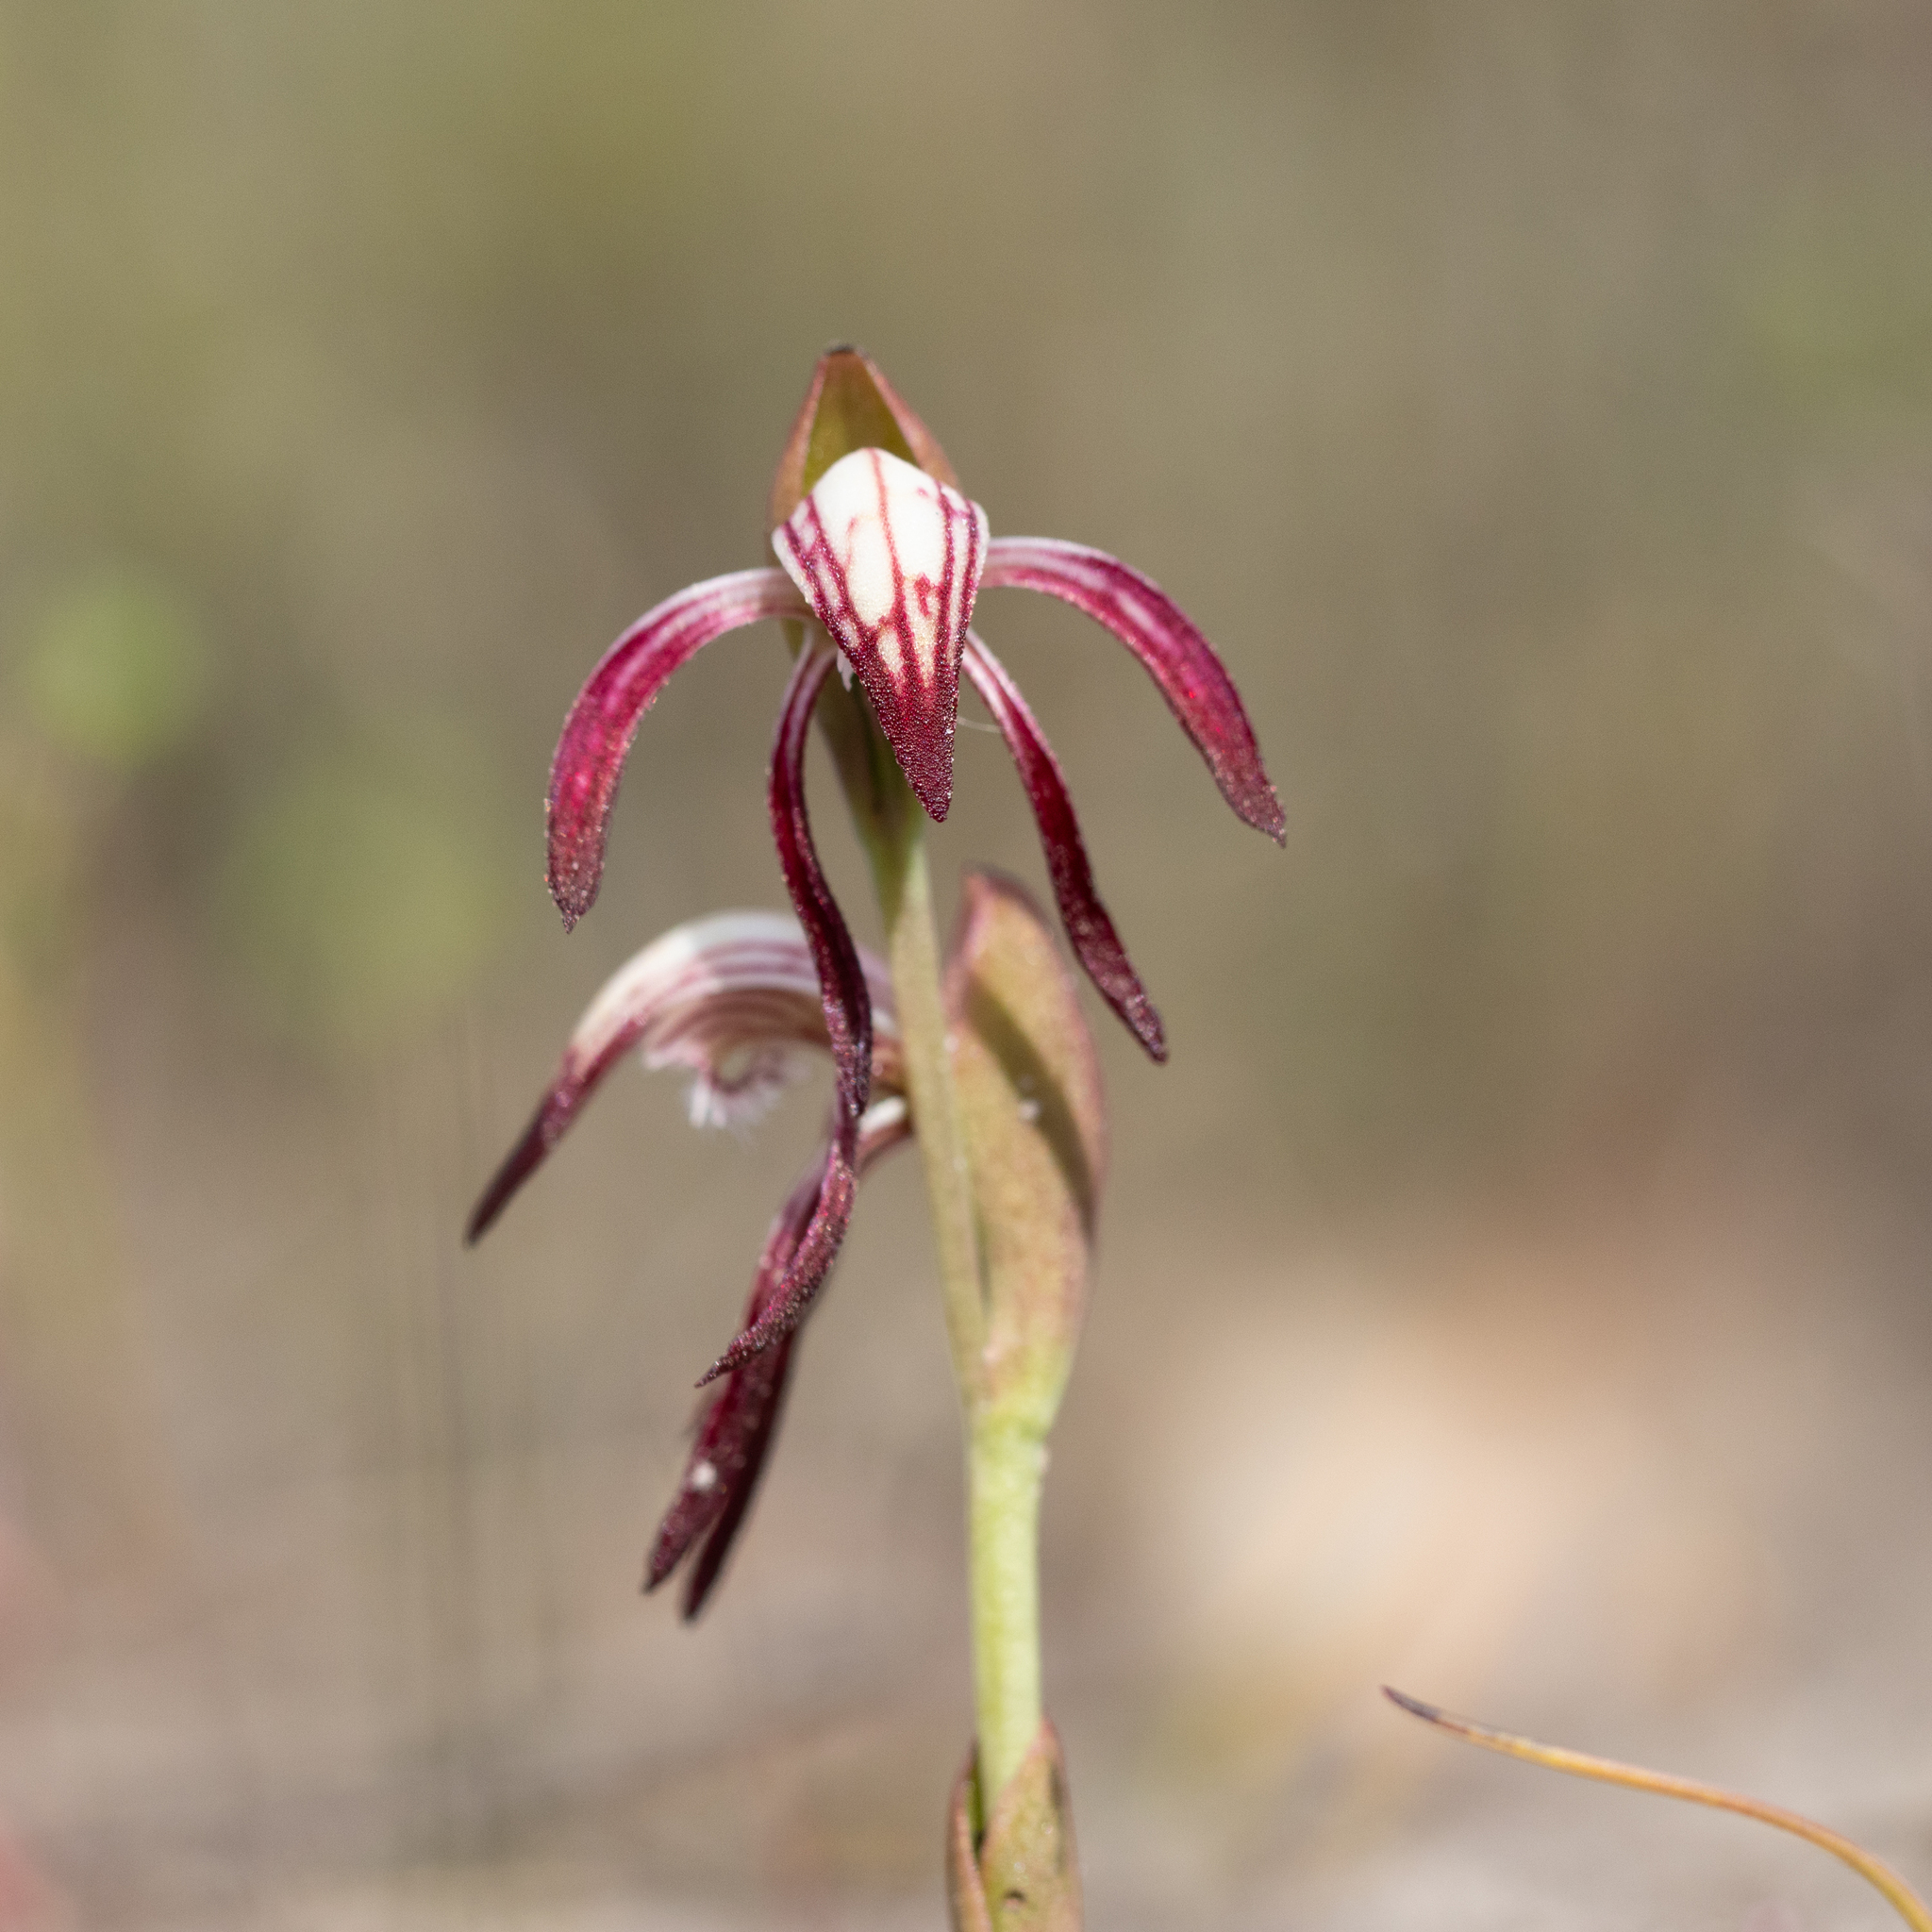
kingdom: Plantae
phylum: Tracheophyta
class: Liliopsida
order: Asparagales
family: Orchidaceae
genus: Pyrorchis
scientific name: Pyrorchis nigricans
